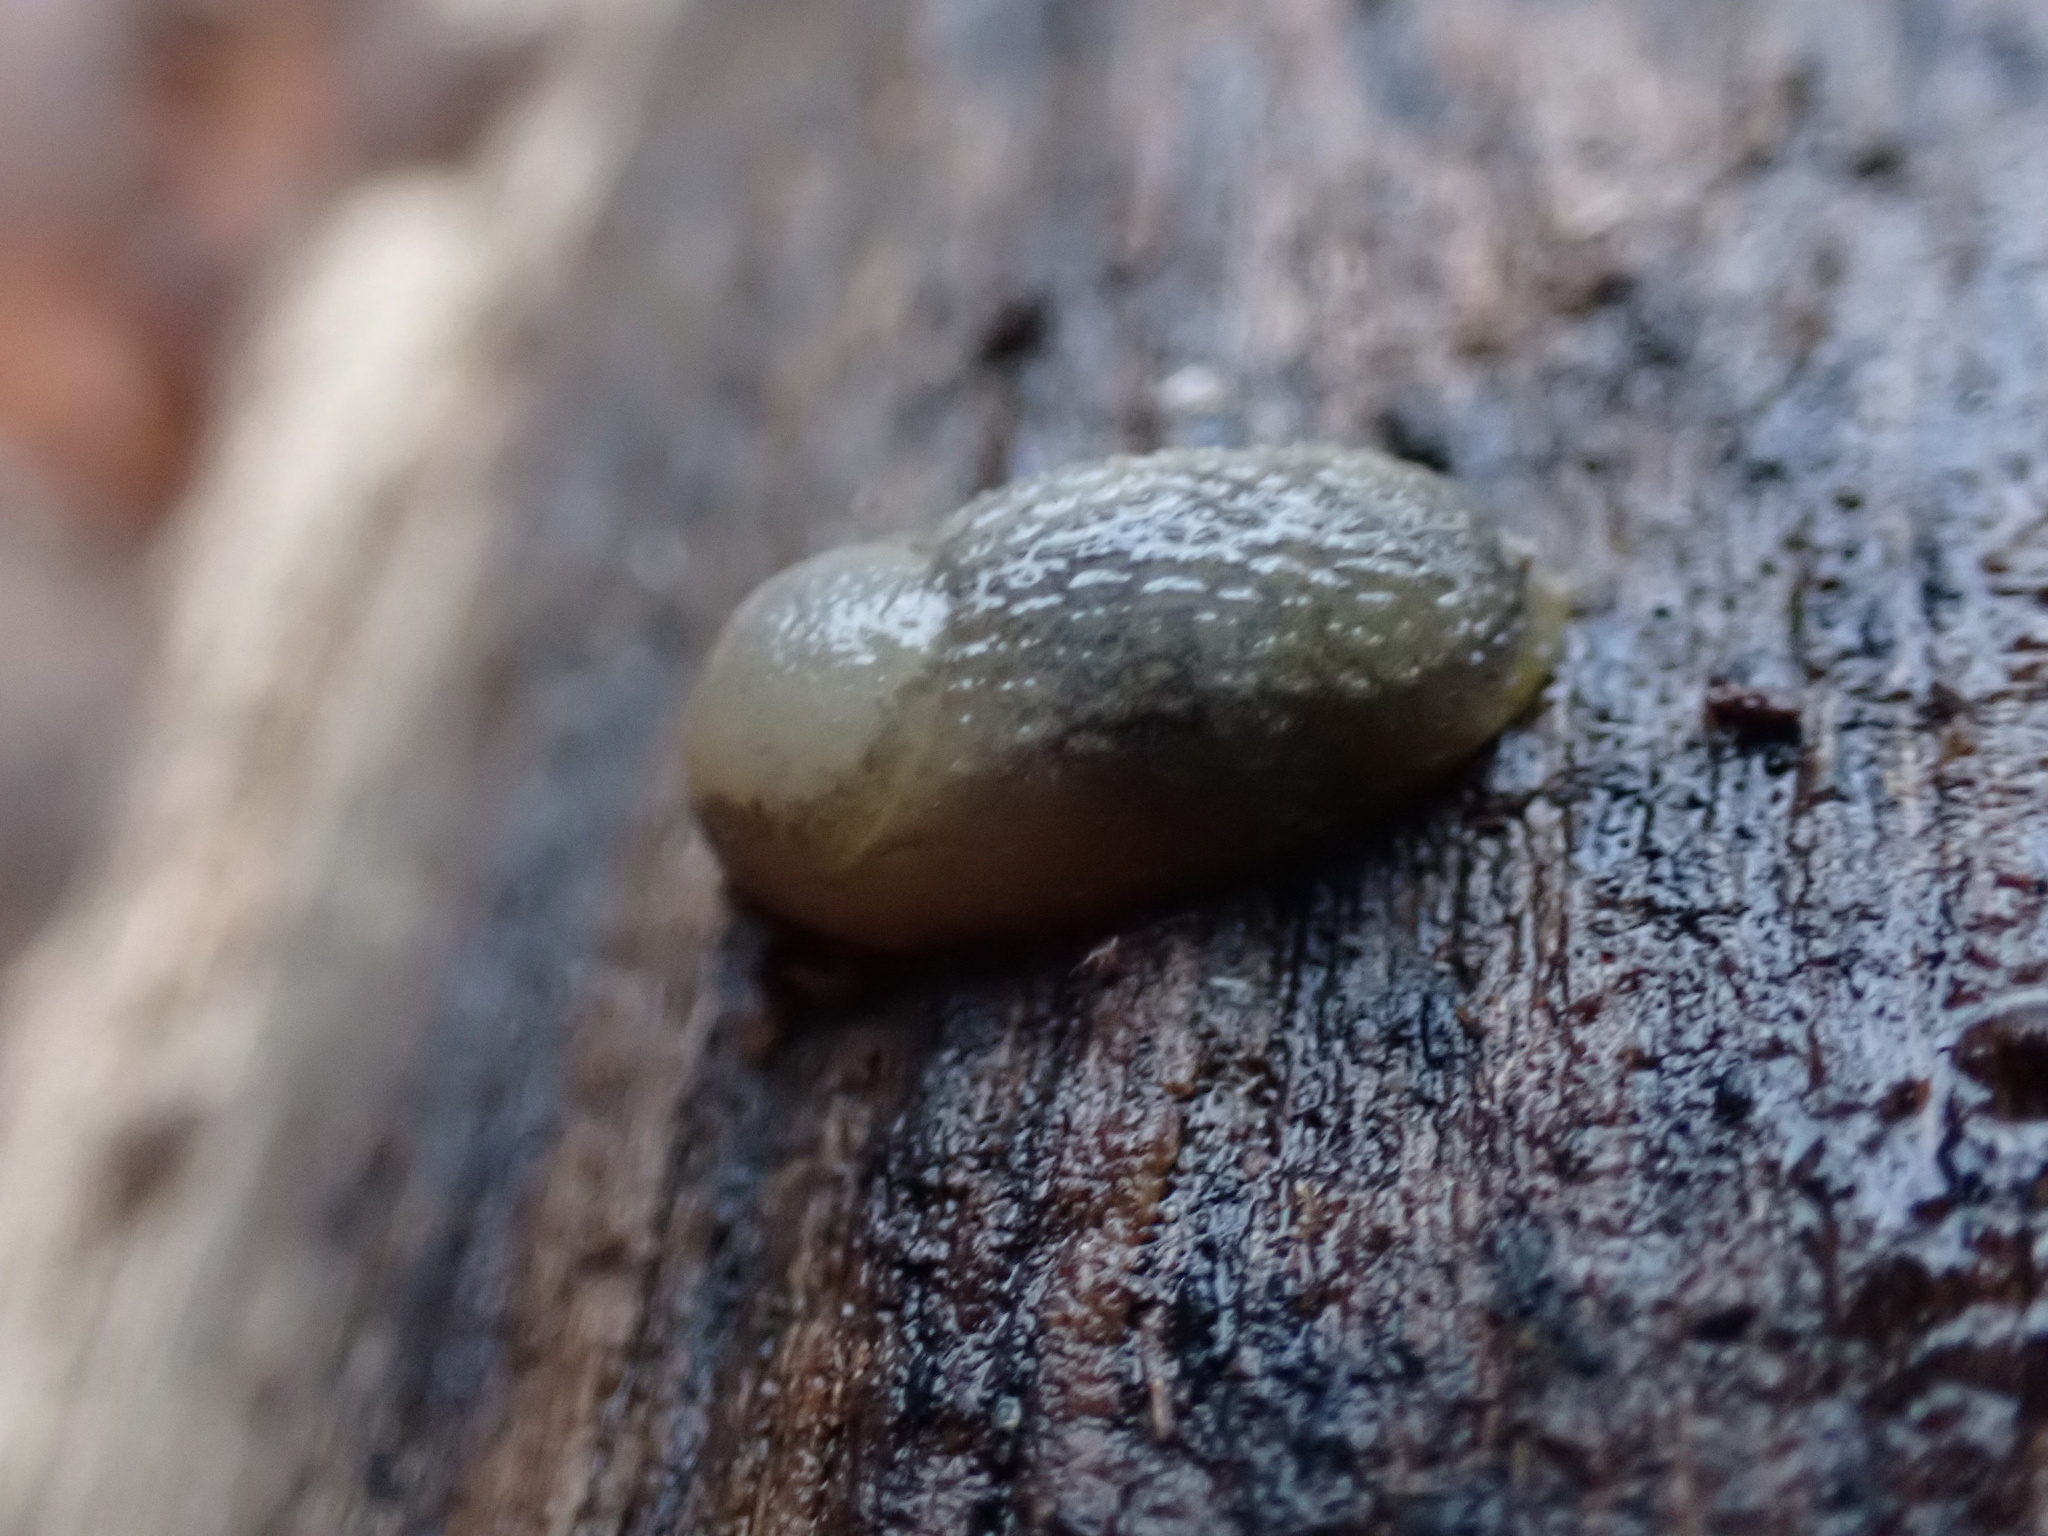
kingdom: Animalia
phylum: Mollusca
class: Gastropoda
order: Stylommatophora
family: Arionidae
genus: Arion
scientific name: Arion intermedius
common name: Hedgehog slug
